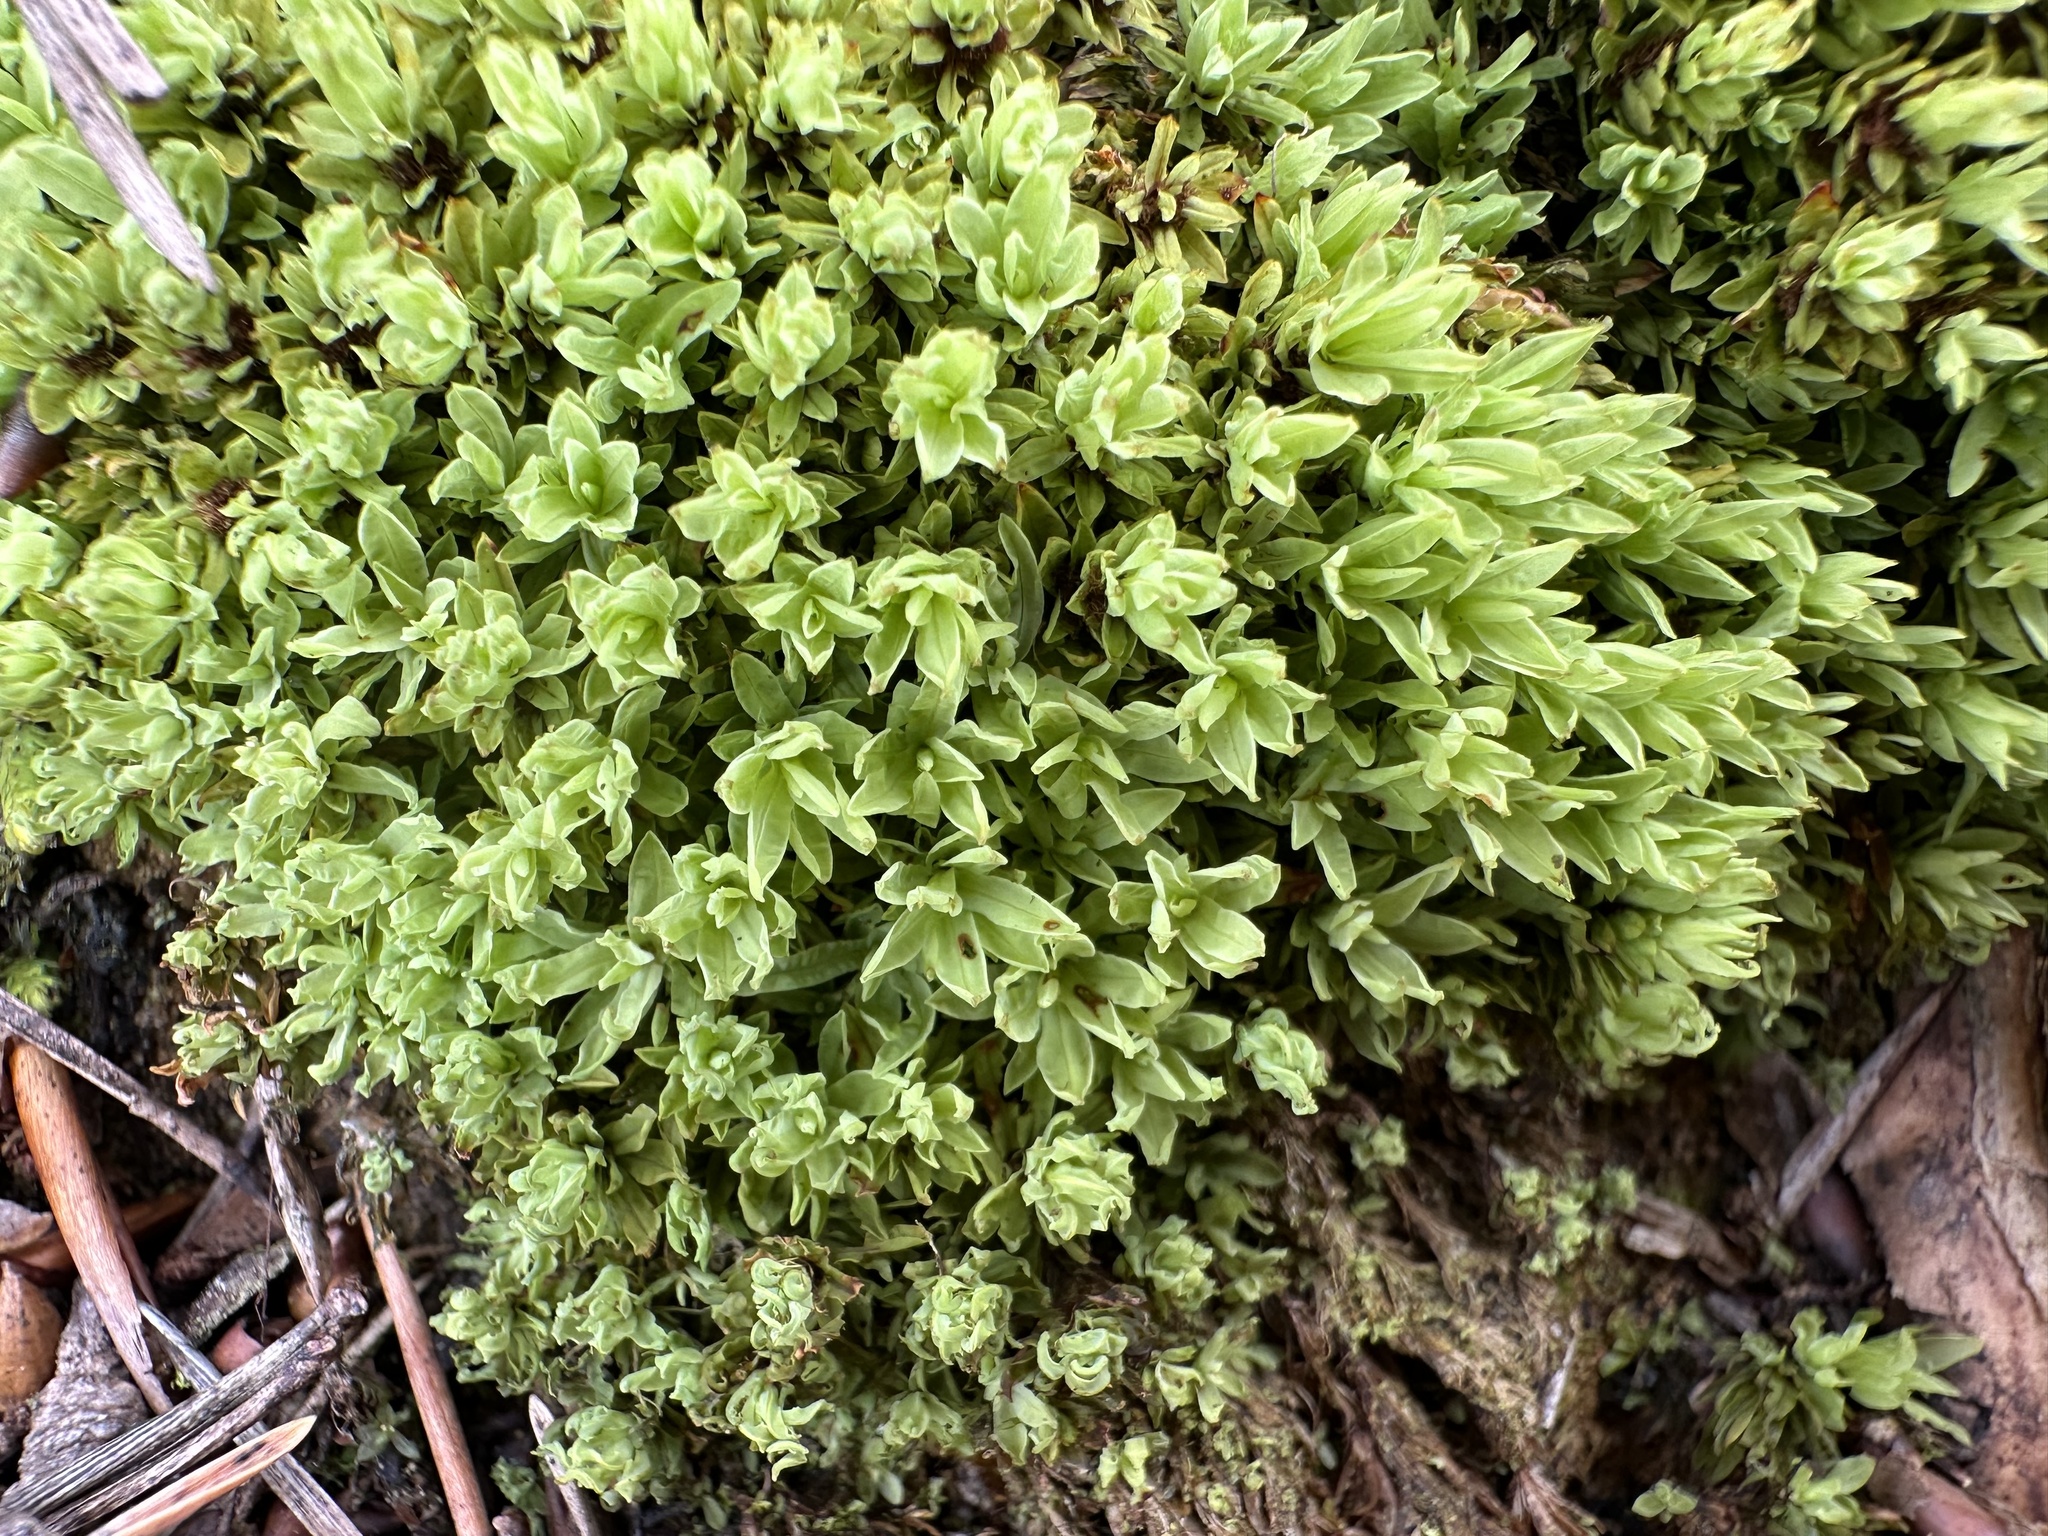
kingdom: Plantae
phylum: Bryophyta
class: Bryopsida
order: Encalyptales
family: Encalyptaceae
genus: Encalypta
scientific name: Encalypta streptocarpa
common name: Spiral extinguisher-moss
